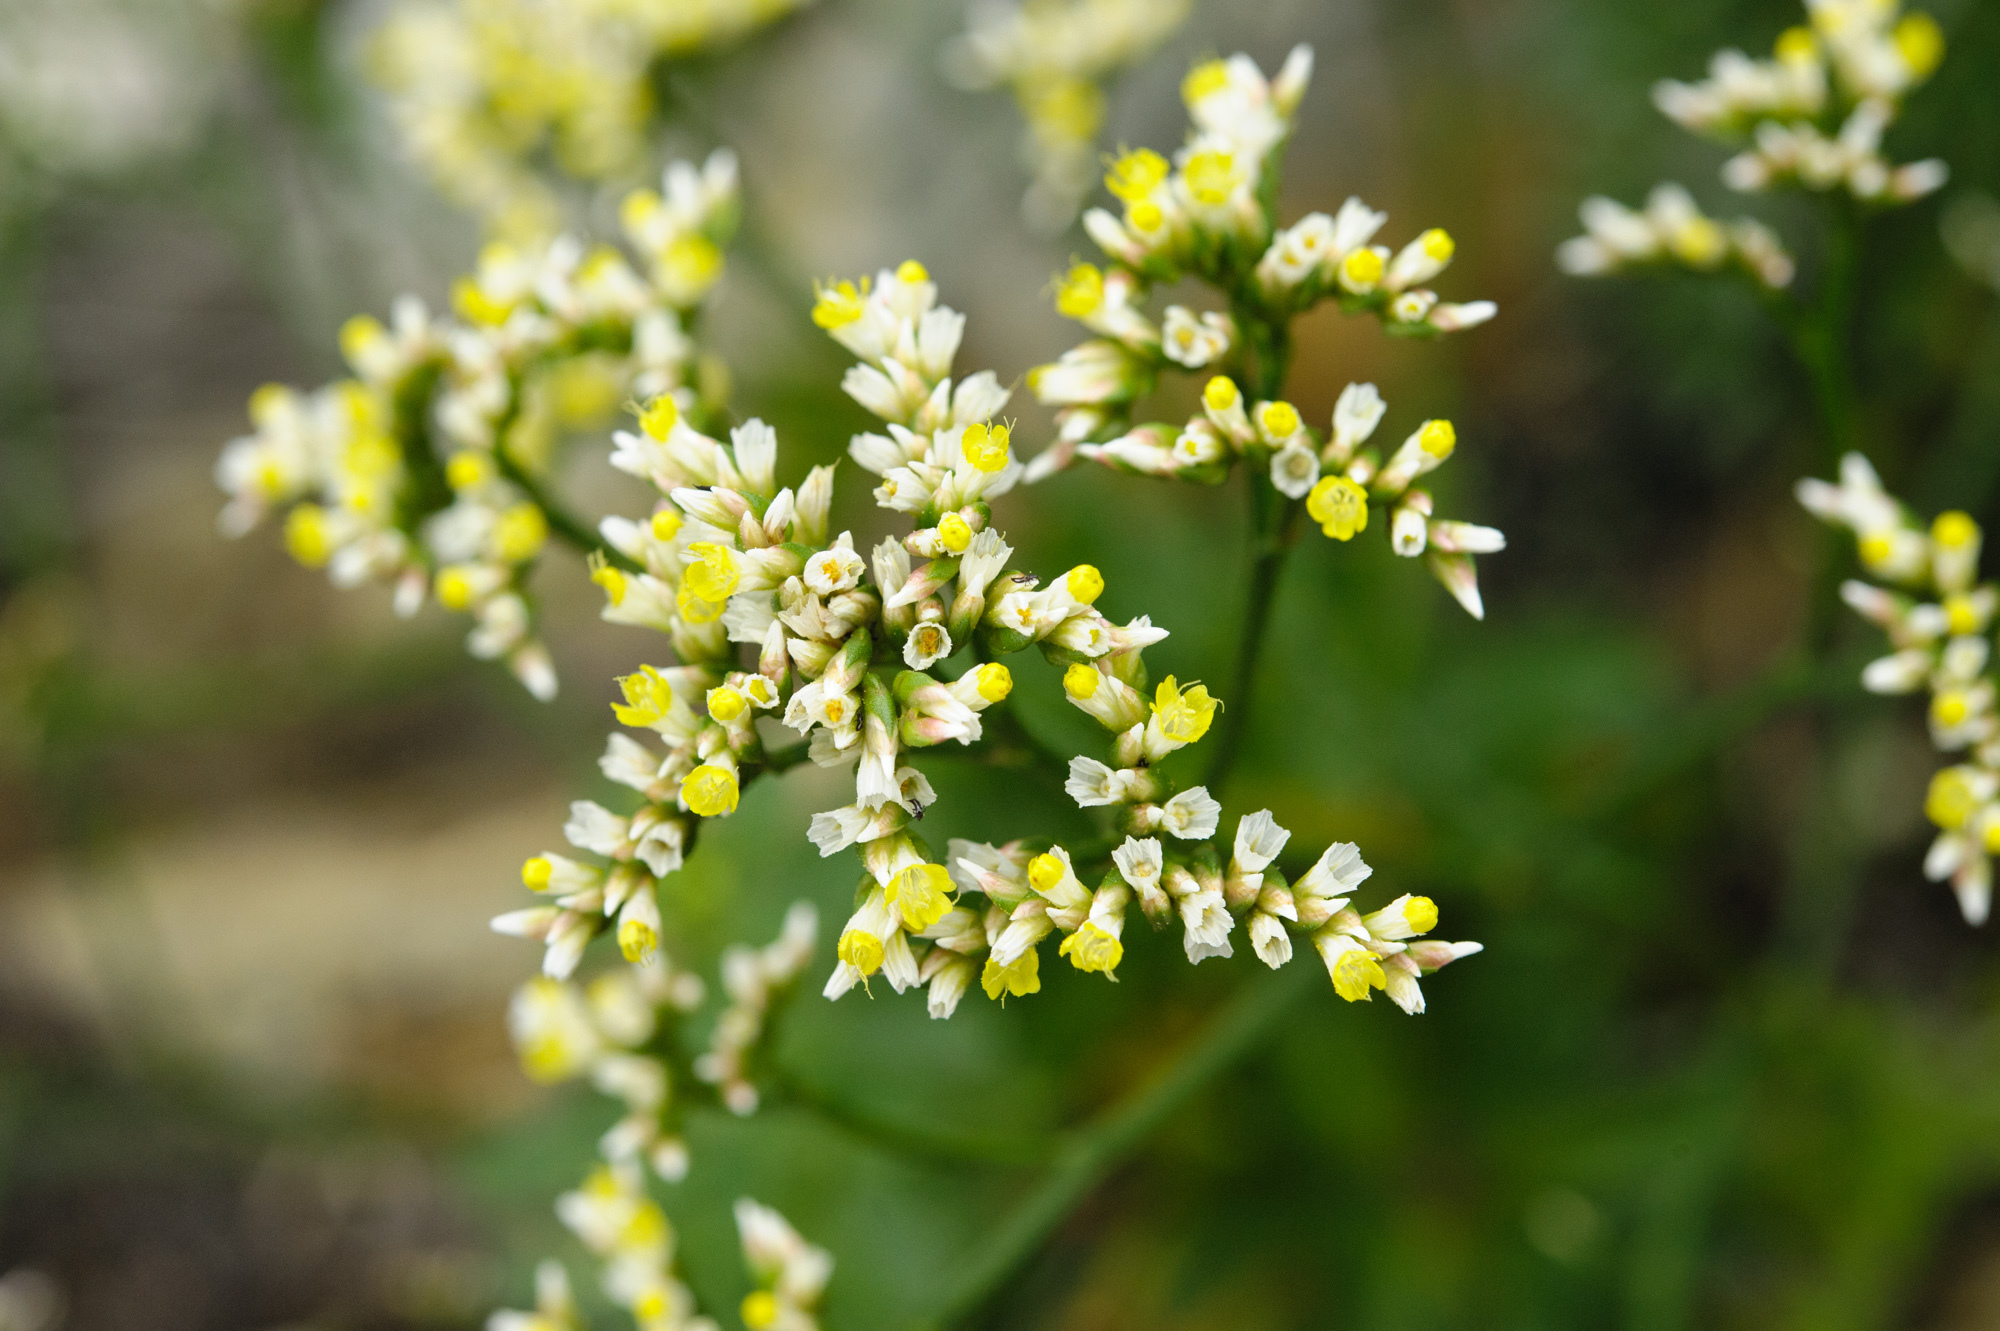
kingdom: Plantae
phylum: Tracheophyta
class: Magnoliopsida
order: Caryophyllales
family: Plumbaginaceae
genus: Limonium
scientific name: Limonium sinense
